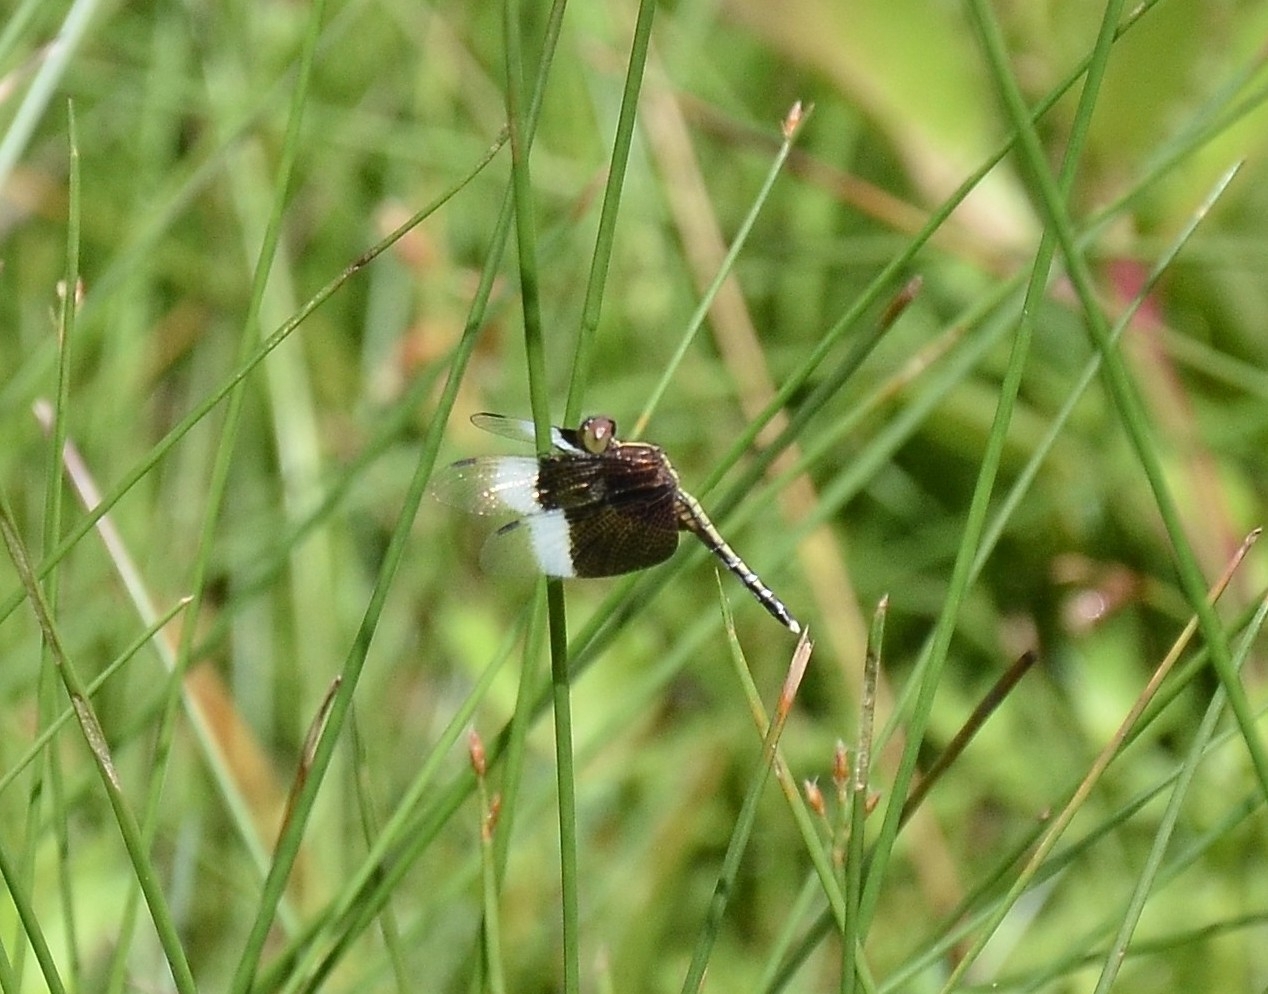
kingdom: Animalia
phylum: Arthropoda
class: Insecta
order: Odonata
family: Libellulidae
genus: Neurothemis
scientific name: Neurothemis tullia
